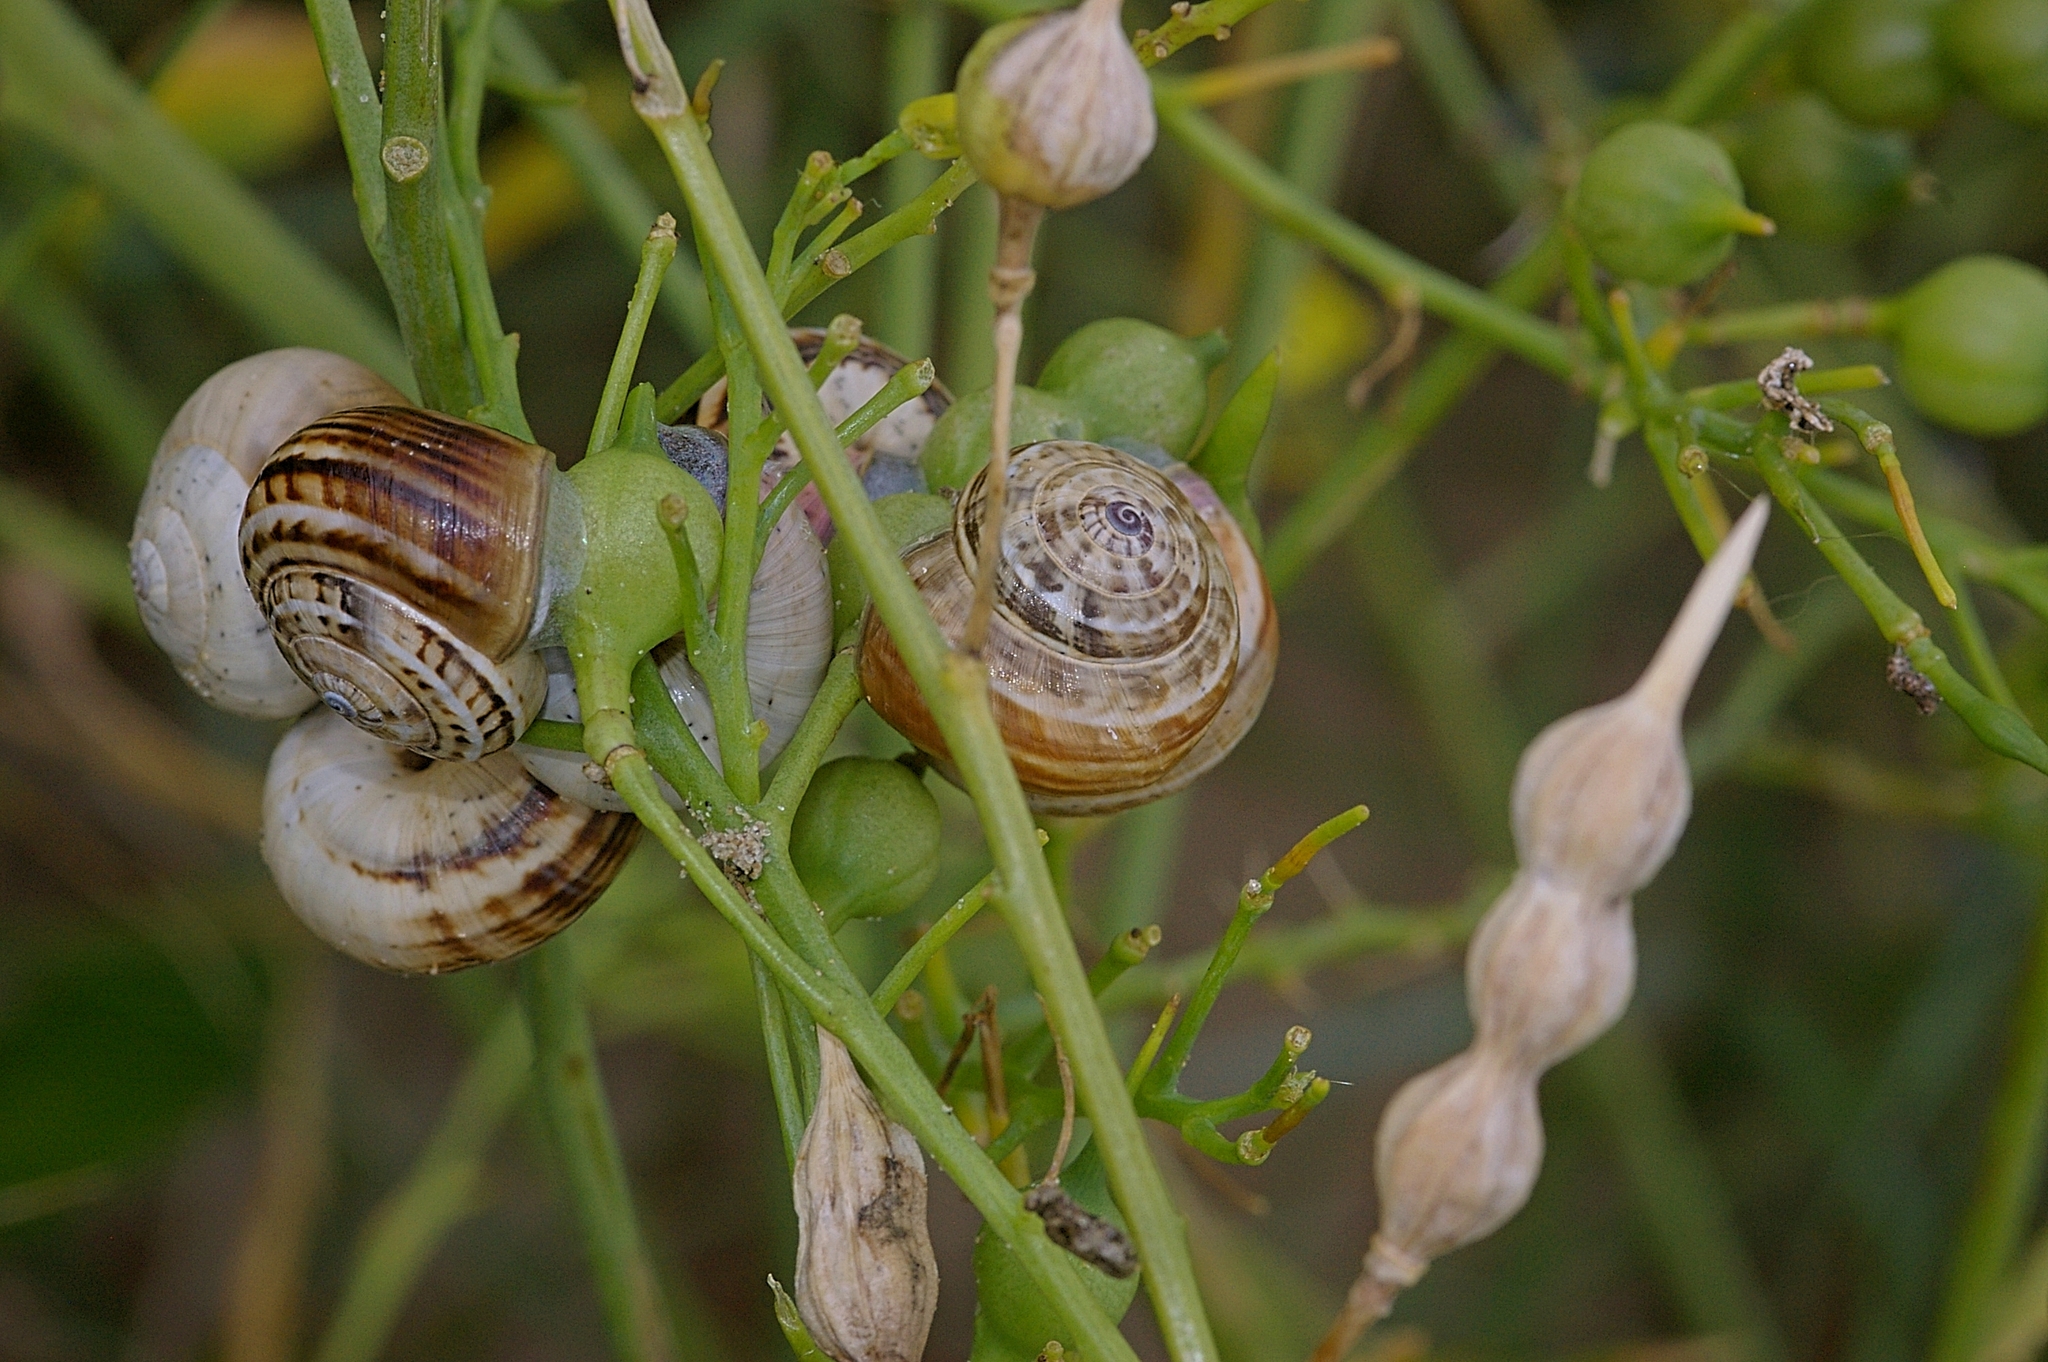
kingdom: Animalia
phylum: Mollusca
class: Gastropoda
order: Stylommatophora
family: Helicidae
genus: Theba
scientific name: Theba pisana
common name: White snail
